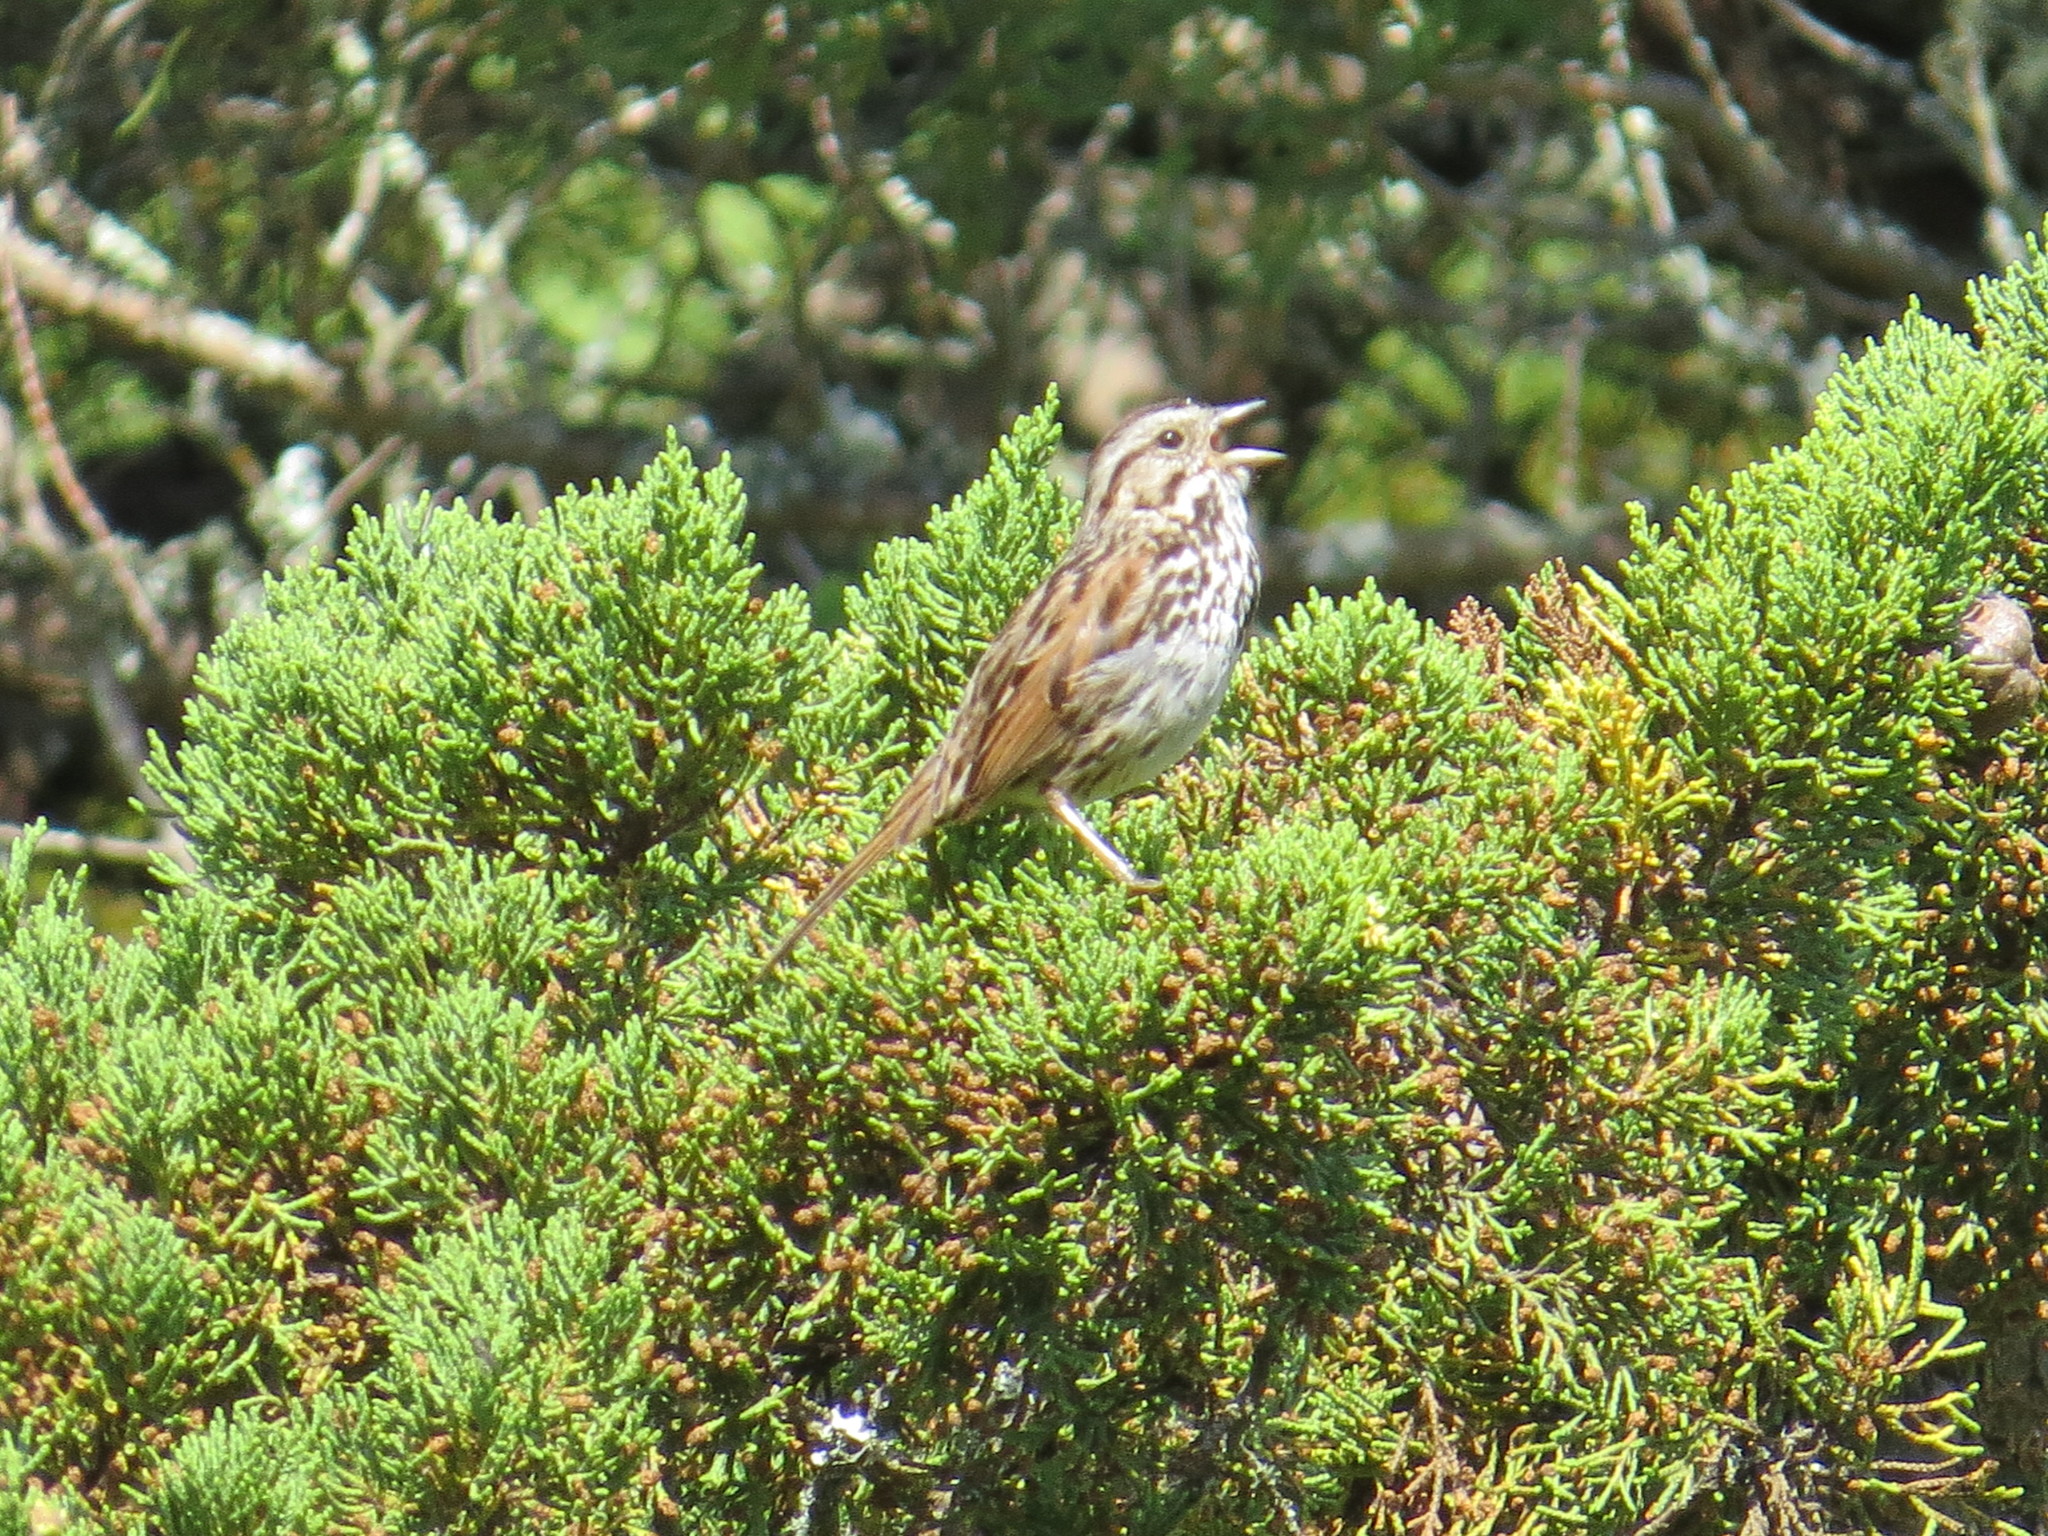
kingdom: Animalia
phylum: Chordata
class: Aves
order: Passeriformes
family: Passerellidae
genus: Melospiza
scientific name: Melospiza melodia
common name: Song sparrow
